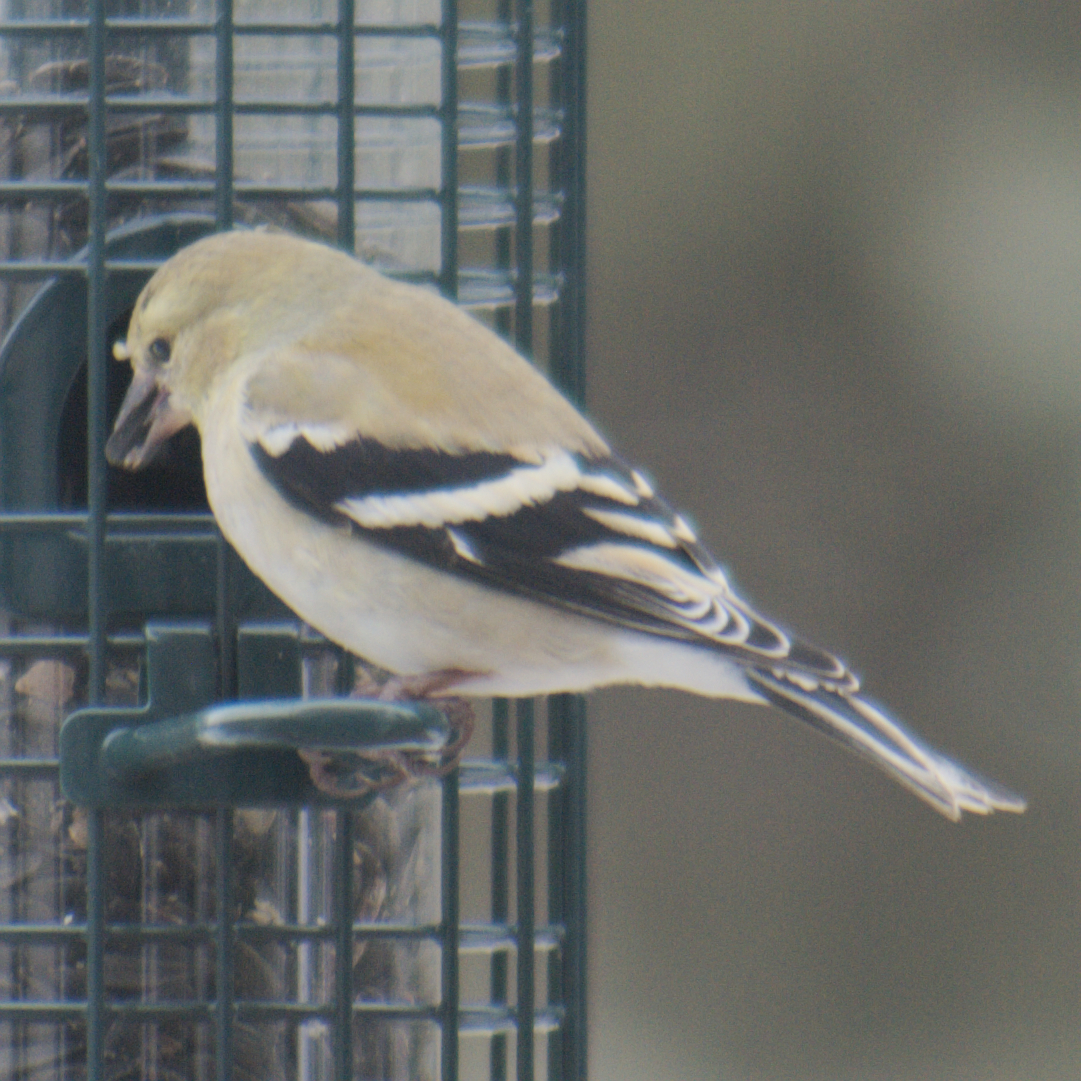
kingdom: Animalia
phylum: Chordata
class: Aves
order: Passeriformes
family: Fringillidae
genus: Spinus
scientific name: Spinus tristis
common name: American goldfinch
